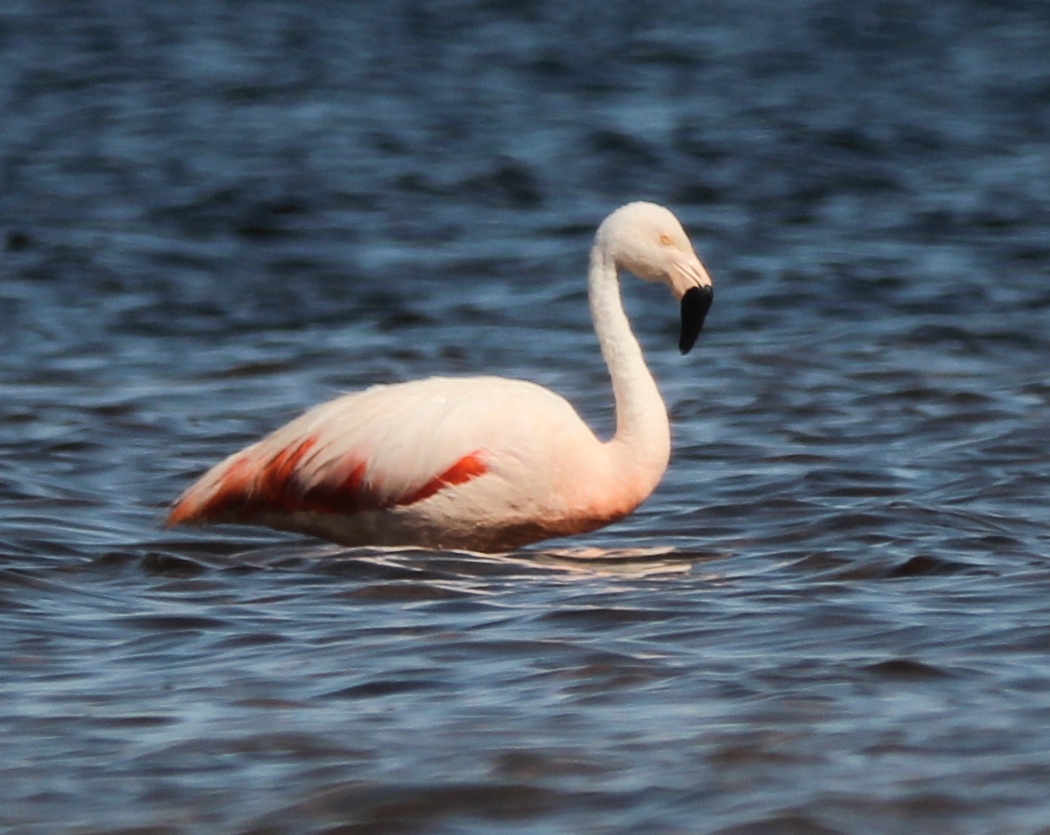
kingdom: Animalia
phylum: Chordata
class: Aves
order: Phoenicopteriformes
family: Phoenicopteridae
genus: Phoenicopterus
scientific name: Phoenicopterus chilensis
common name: Chilean flamingo
